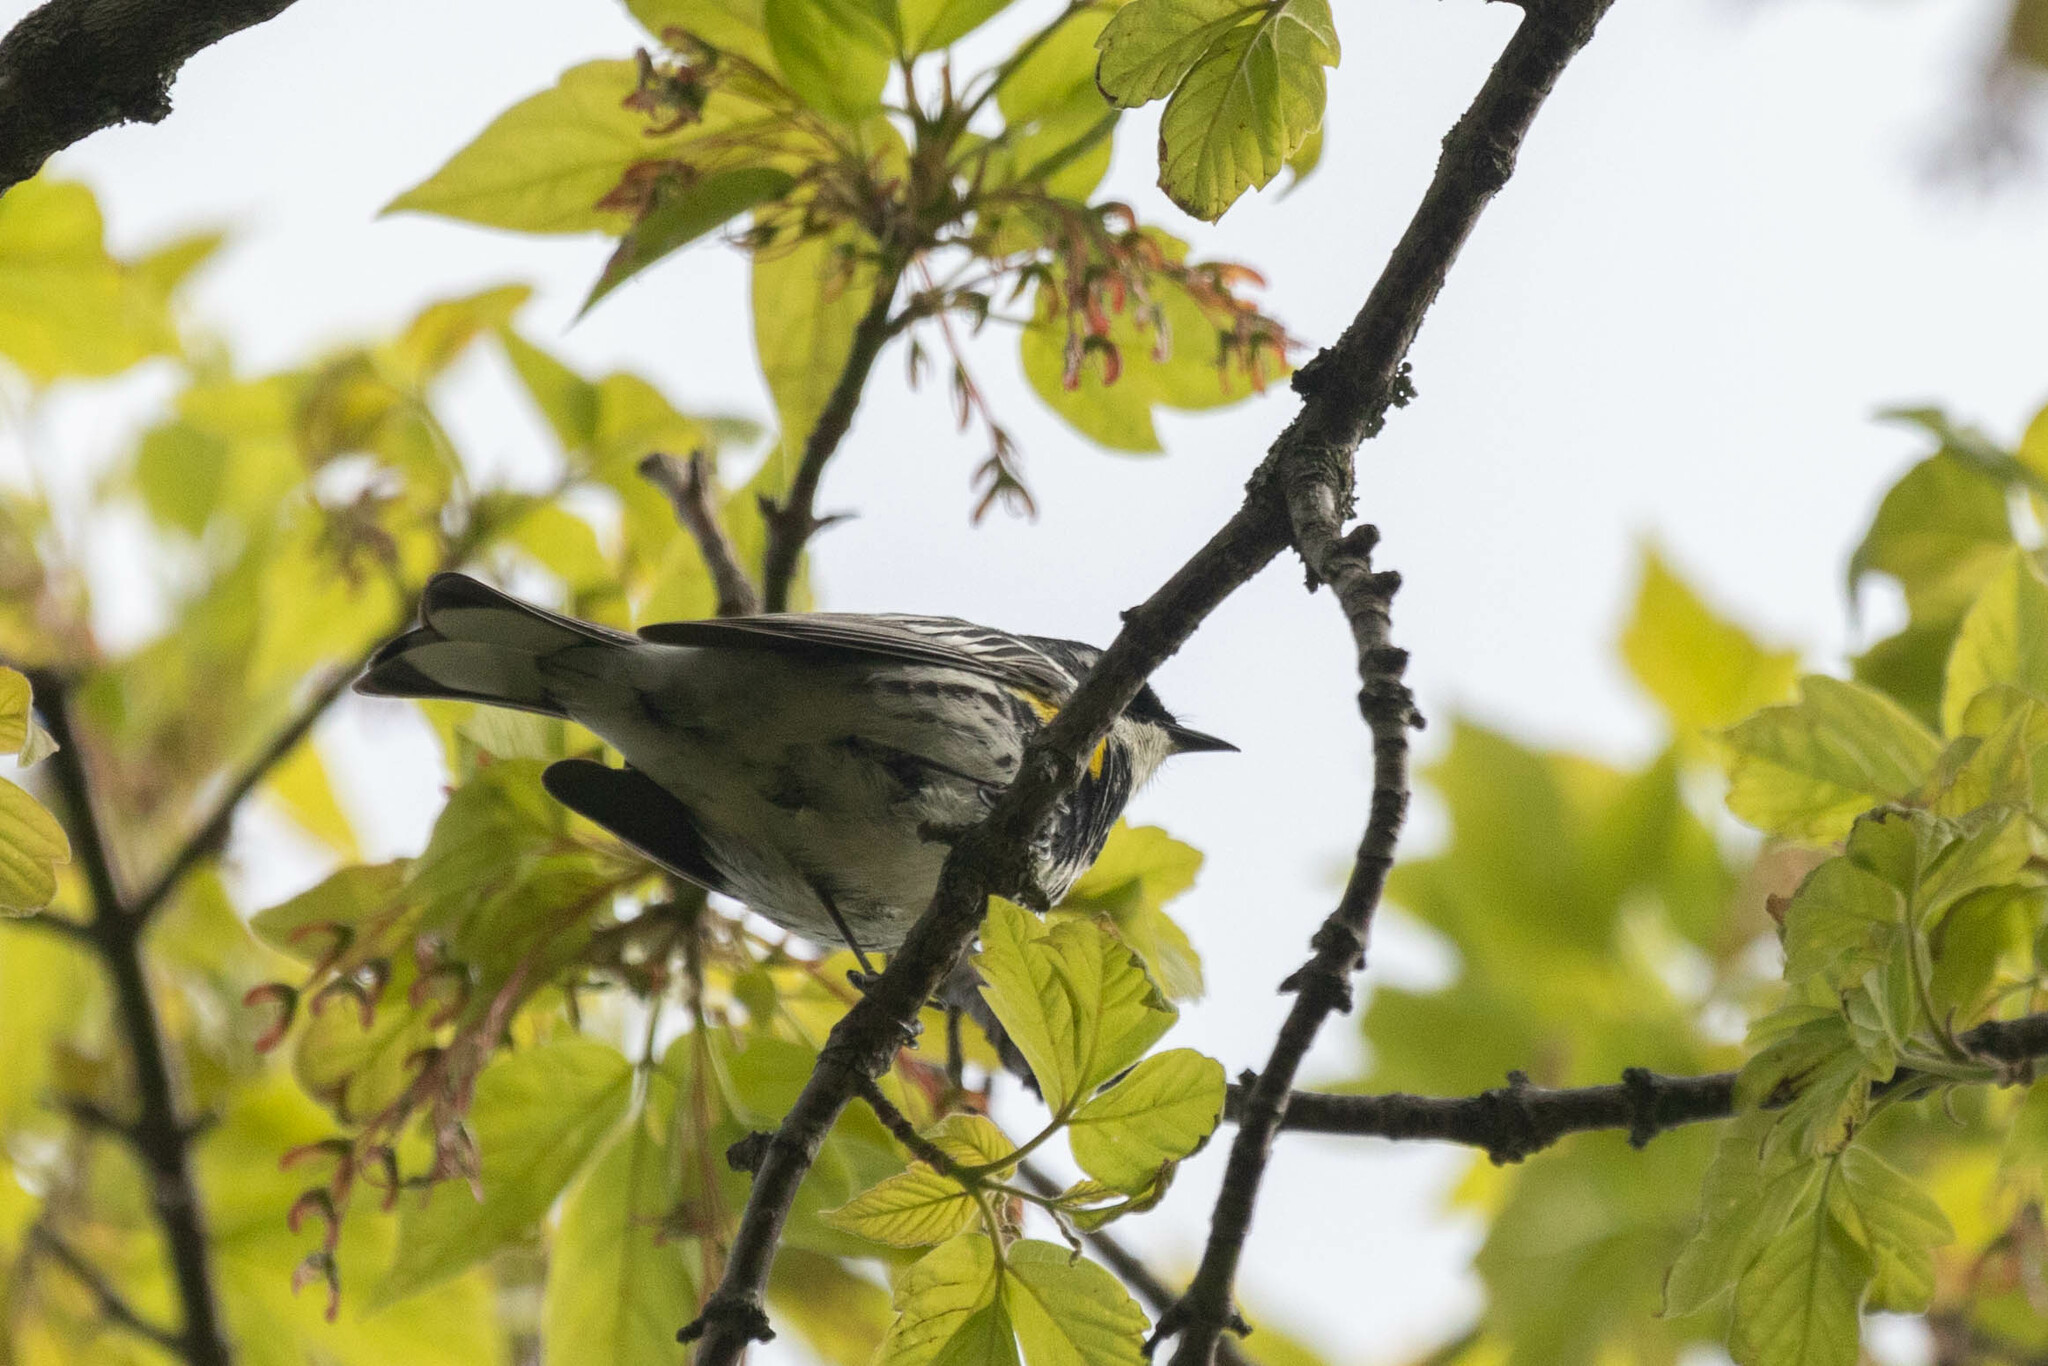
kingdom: Animalia
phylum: Chordata
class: Aves
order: Passeriformes
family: Parulidae
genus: Setophaga
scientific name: Setophaga coronata
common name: Myrtle warbler
